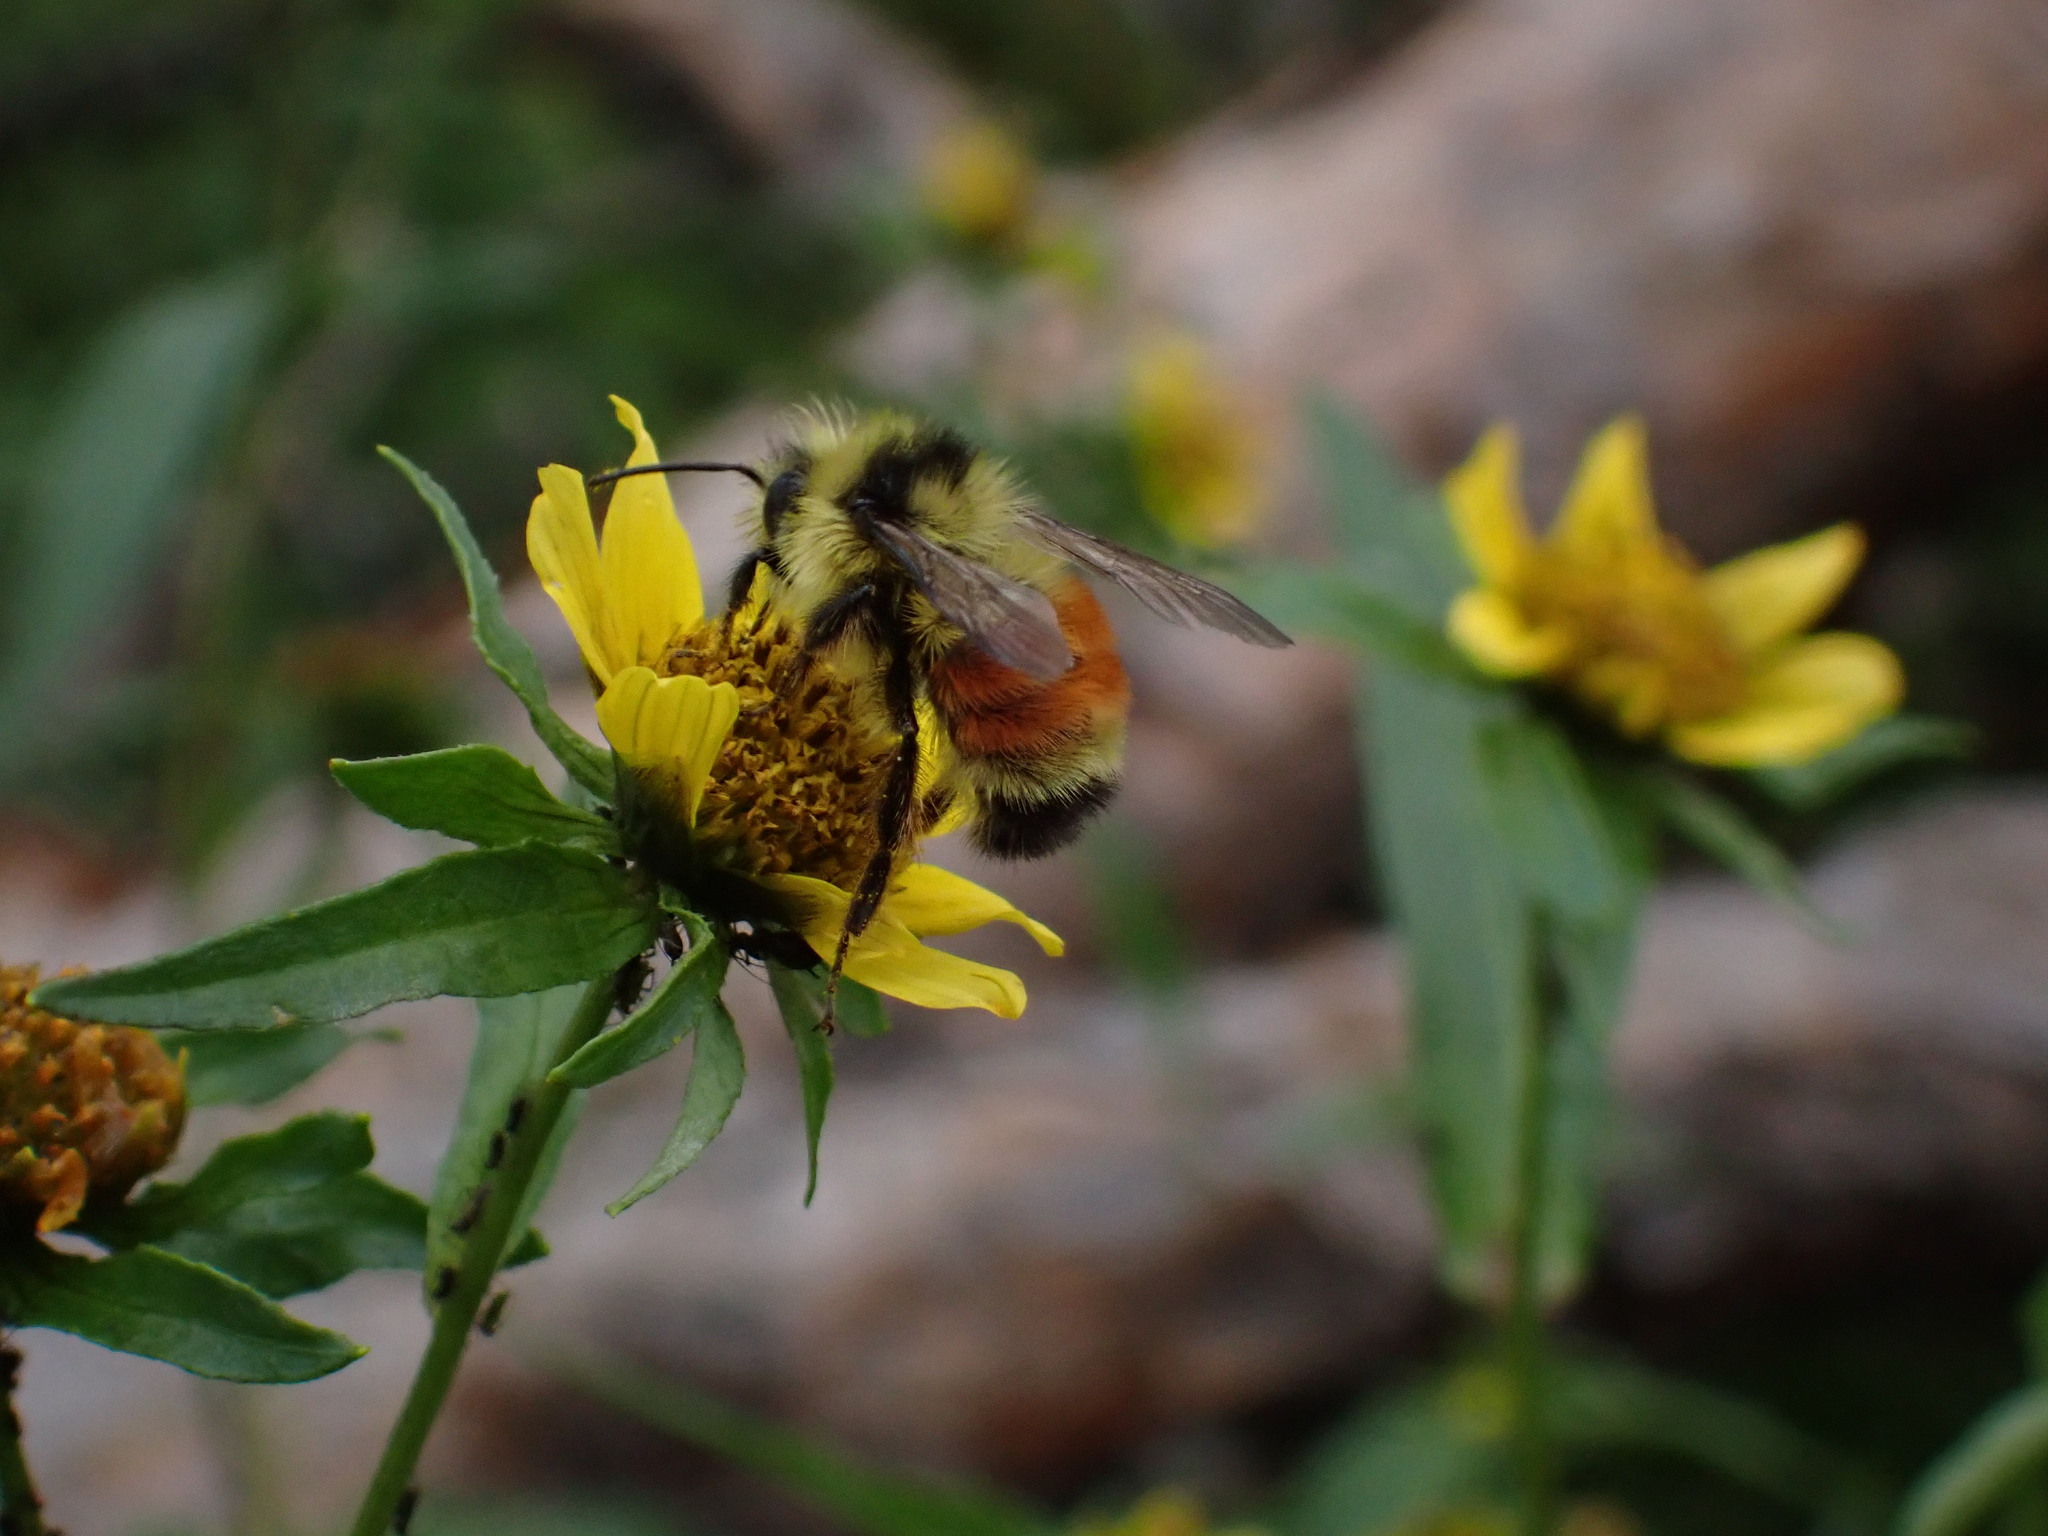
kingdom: Animalia
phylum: Arthropoda
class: Insecta
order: Hymenoptera
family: Apidae
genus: Bombus
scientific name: Bombus ternarius
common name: Tri-colored bumble bee
